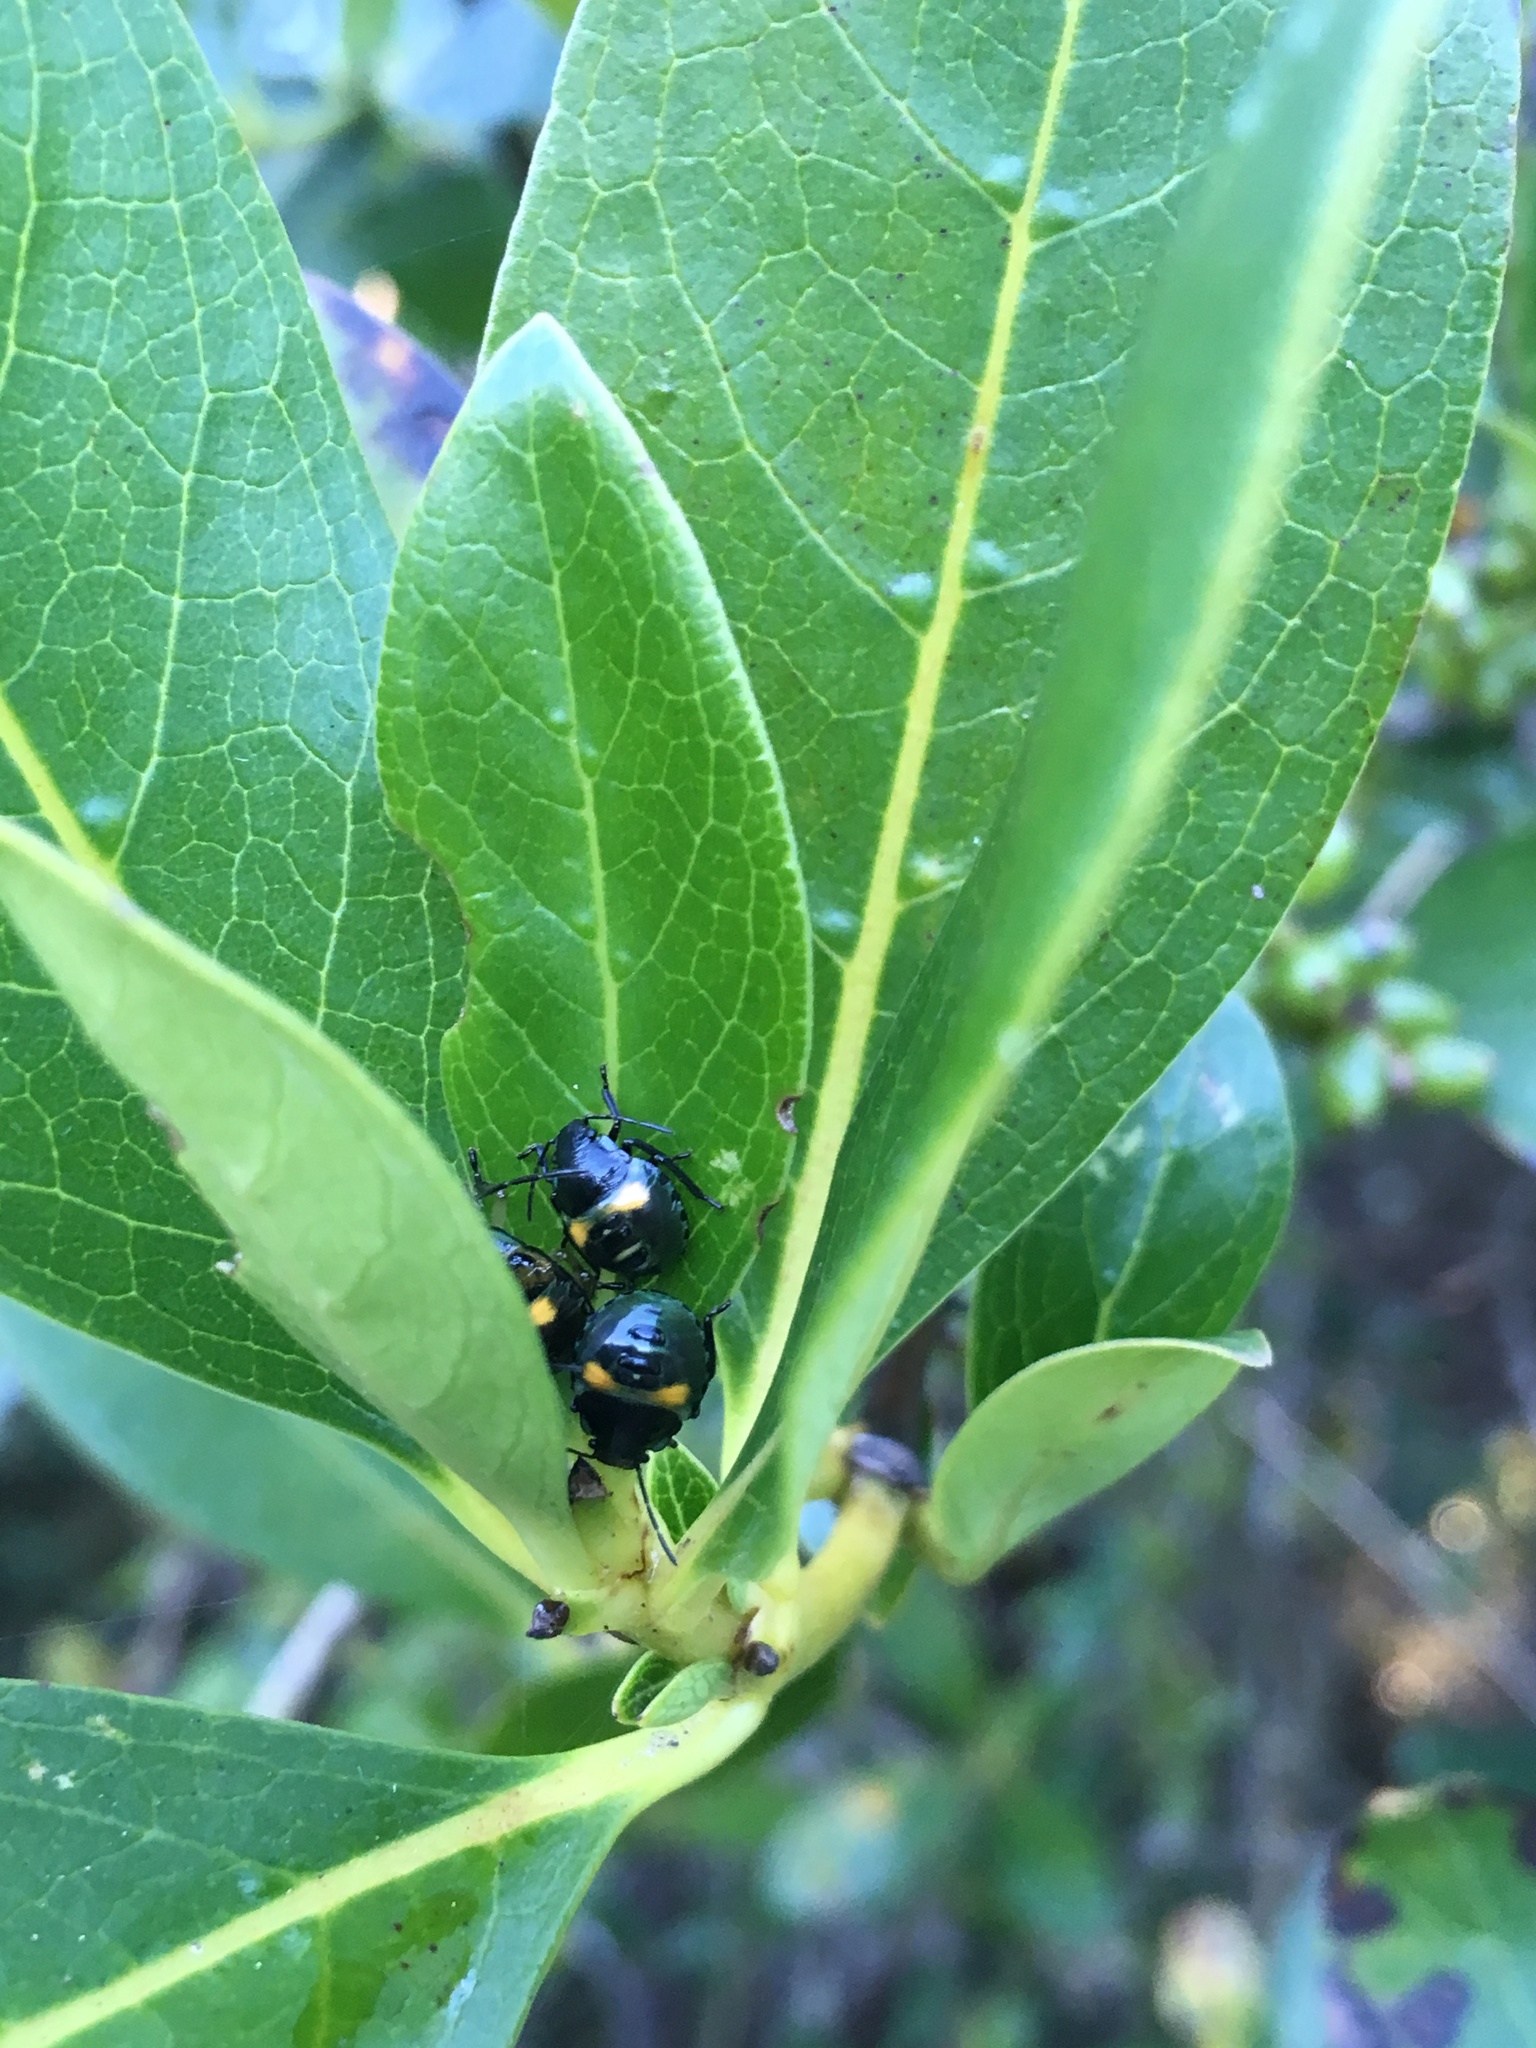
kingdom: Animalia
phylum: Arthropoda
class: Insecta
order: Hemiptera
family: Pentatomidae
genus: Glaucias
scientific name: Glaucias amyota
